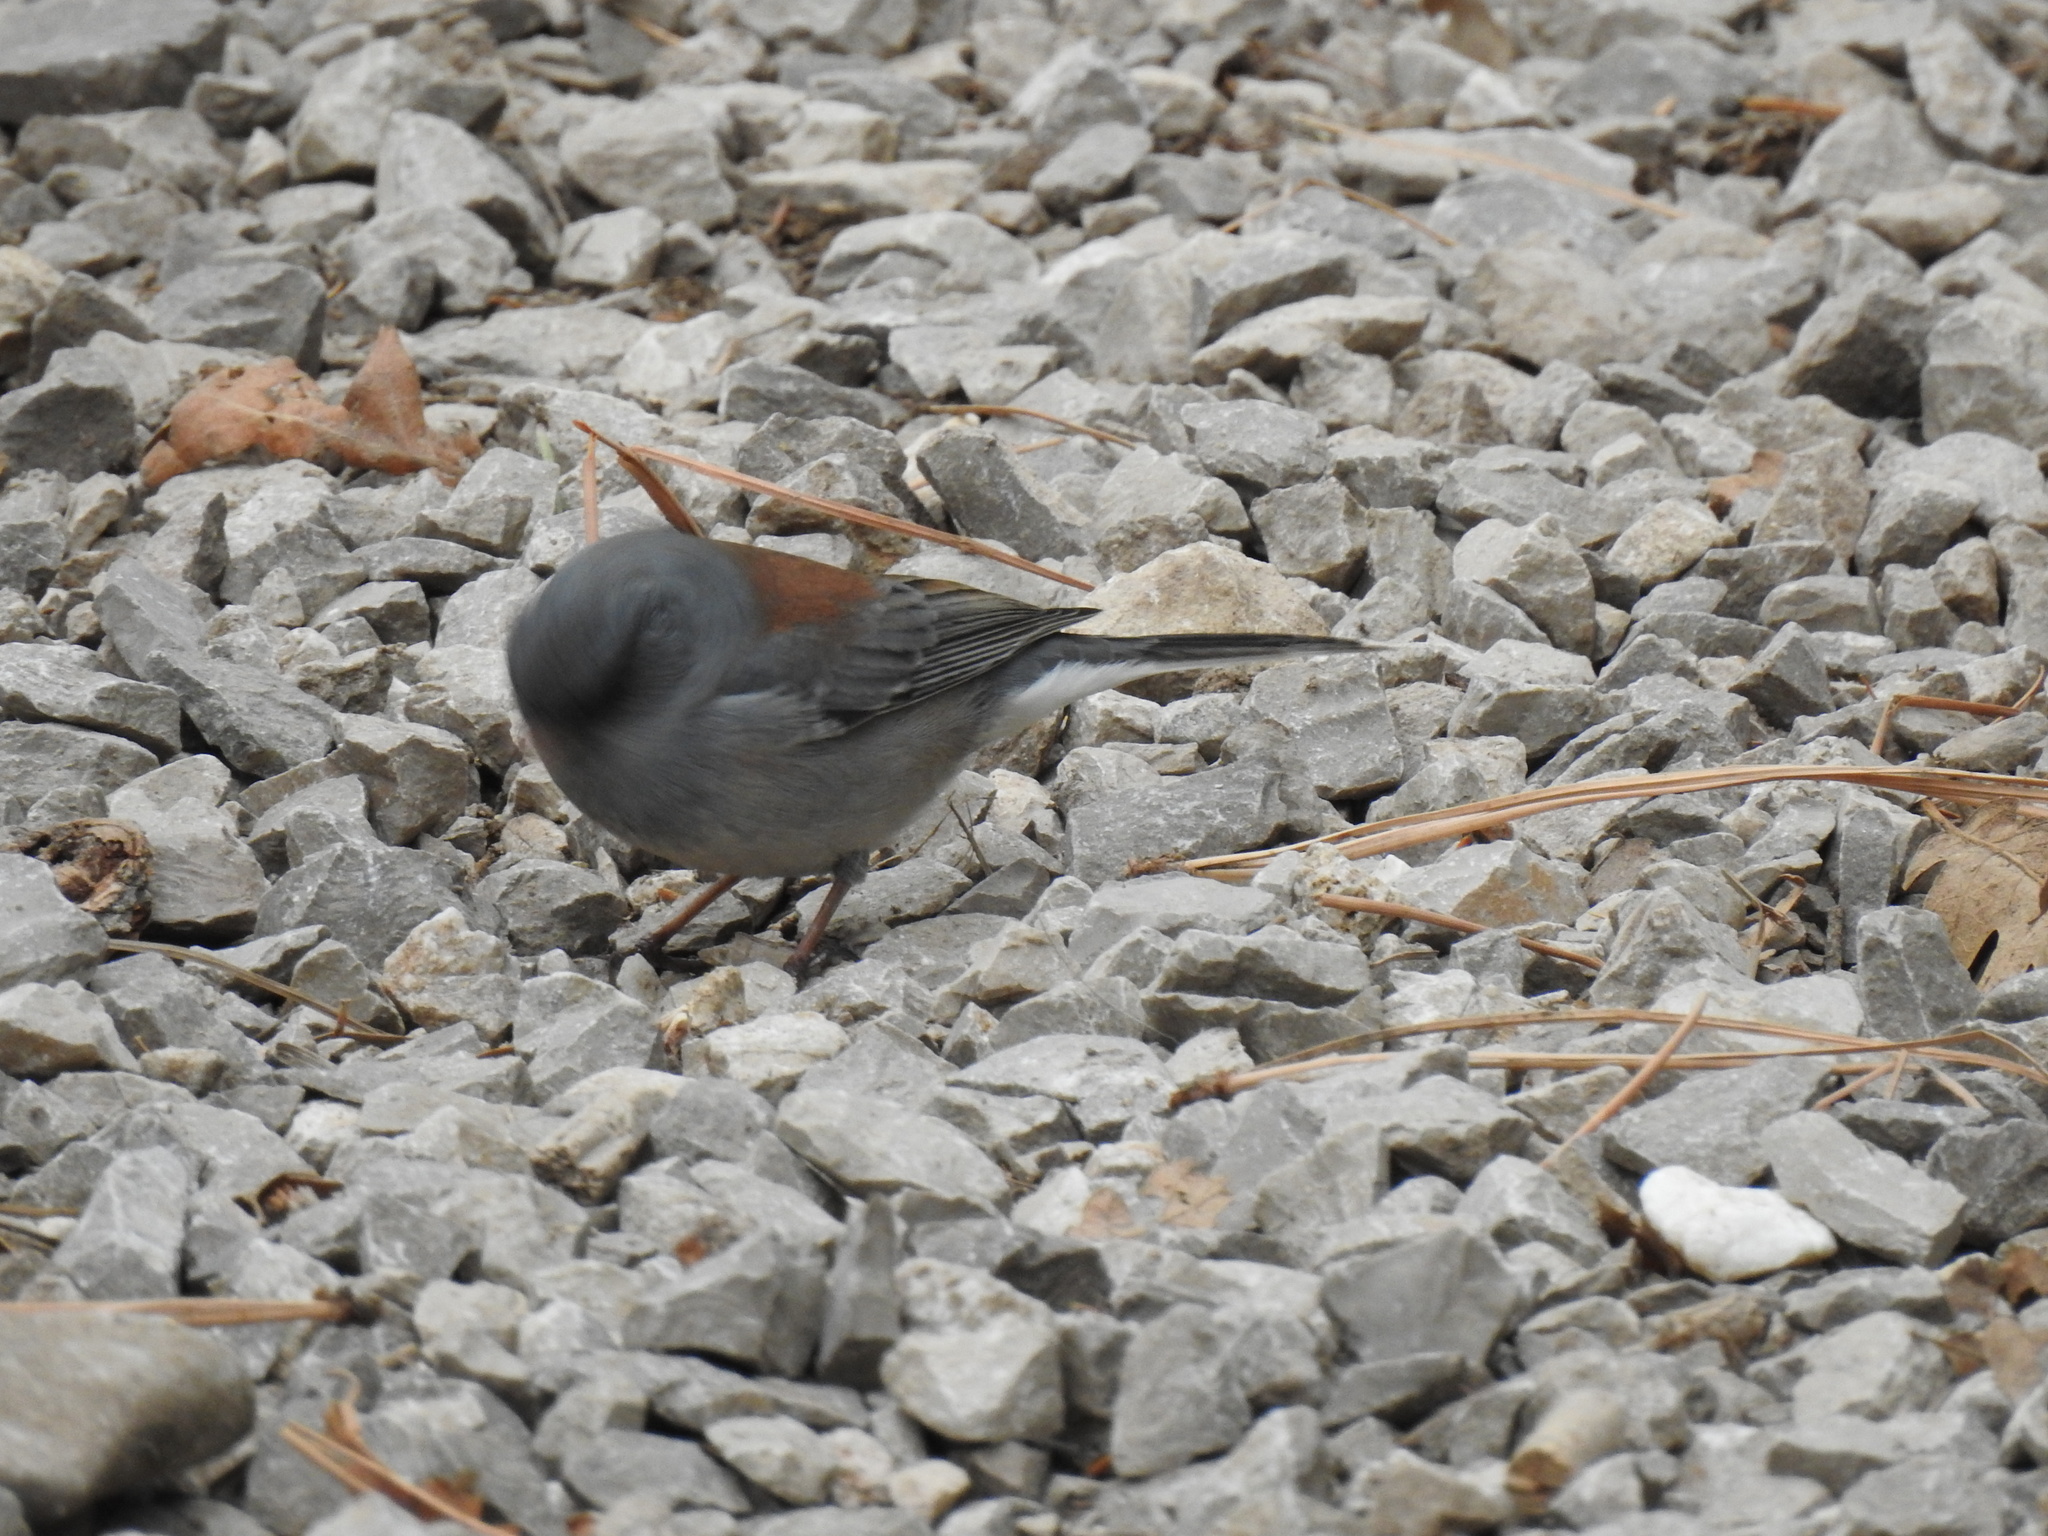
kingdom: Animalia
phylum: Chordata
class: Aves
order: Passeriformes
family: Passerellidae
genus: Junco
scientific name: Junco hyemalis
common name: Dark-eyed junco
